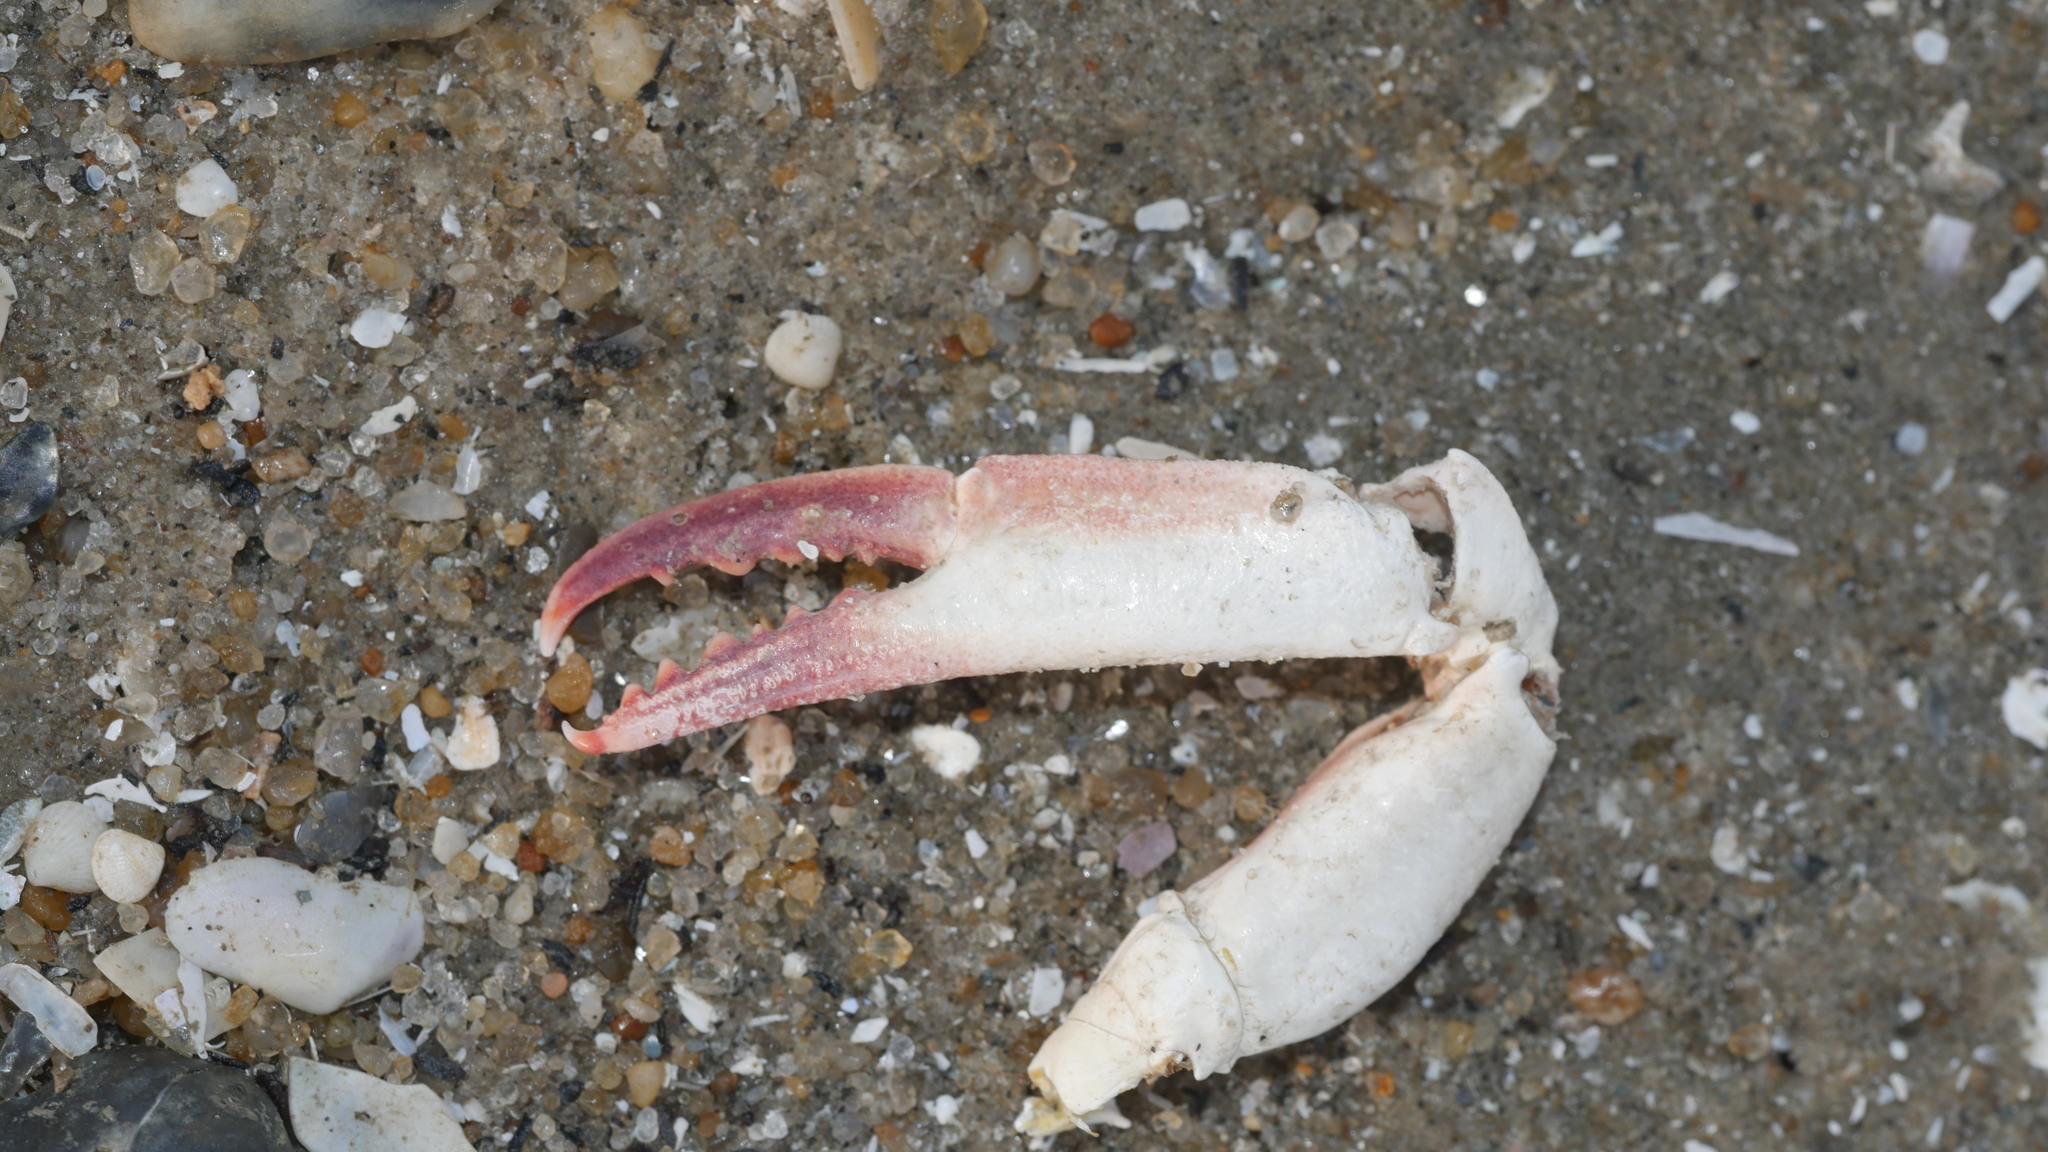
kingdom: Animalia
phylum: Arthropoda
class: Malacostraca
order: Decapoda
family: Ovalipidae
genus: Ovalipes
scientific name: Ovalipes ocellatus
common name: Lady crab
